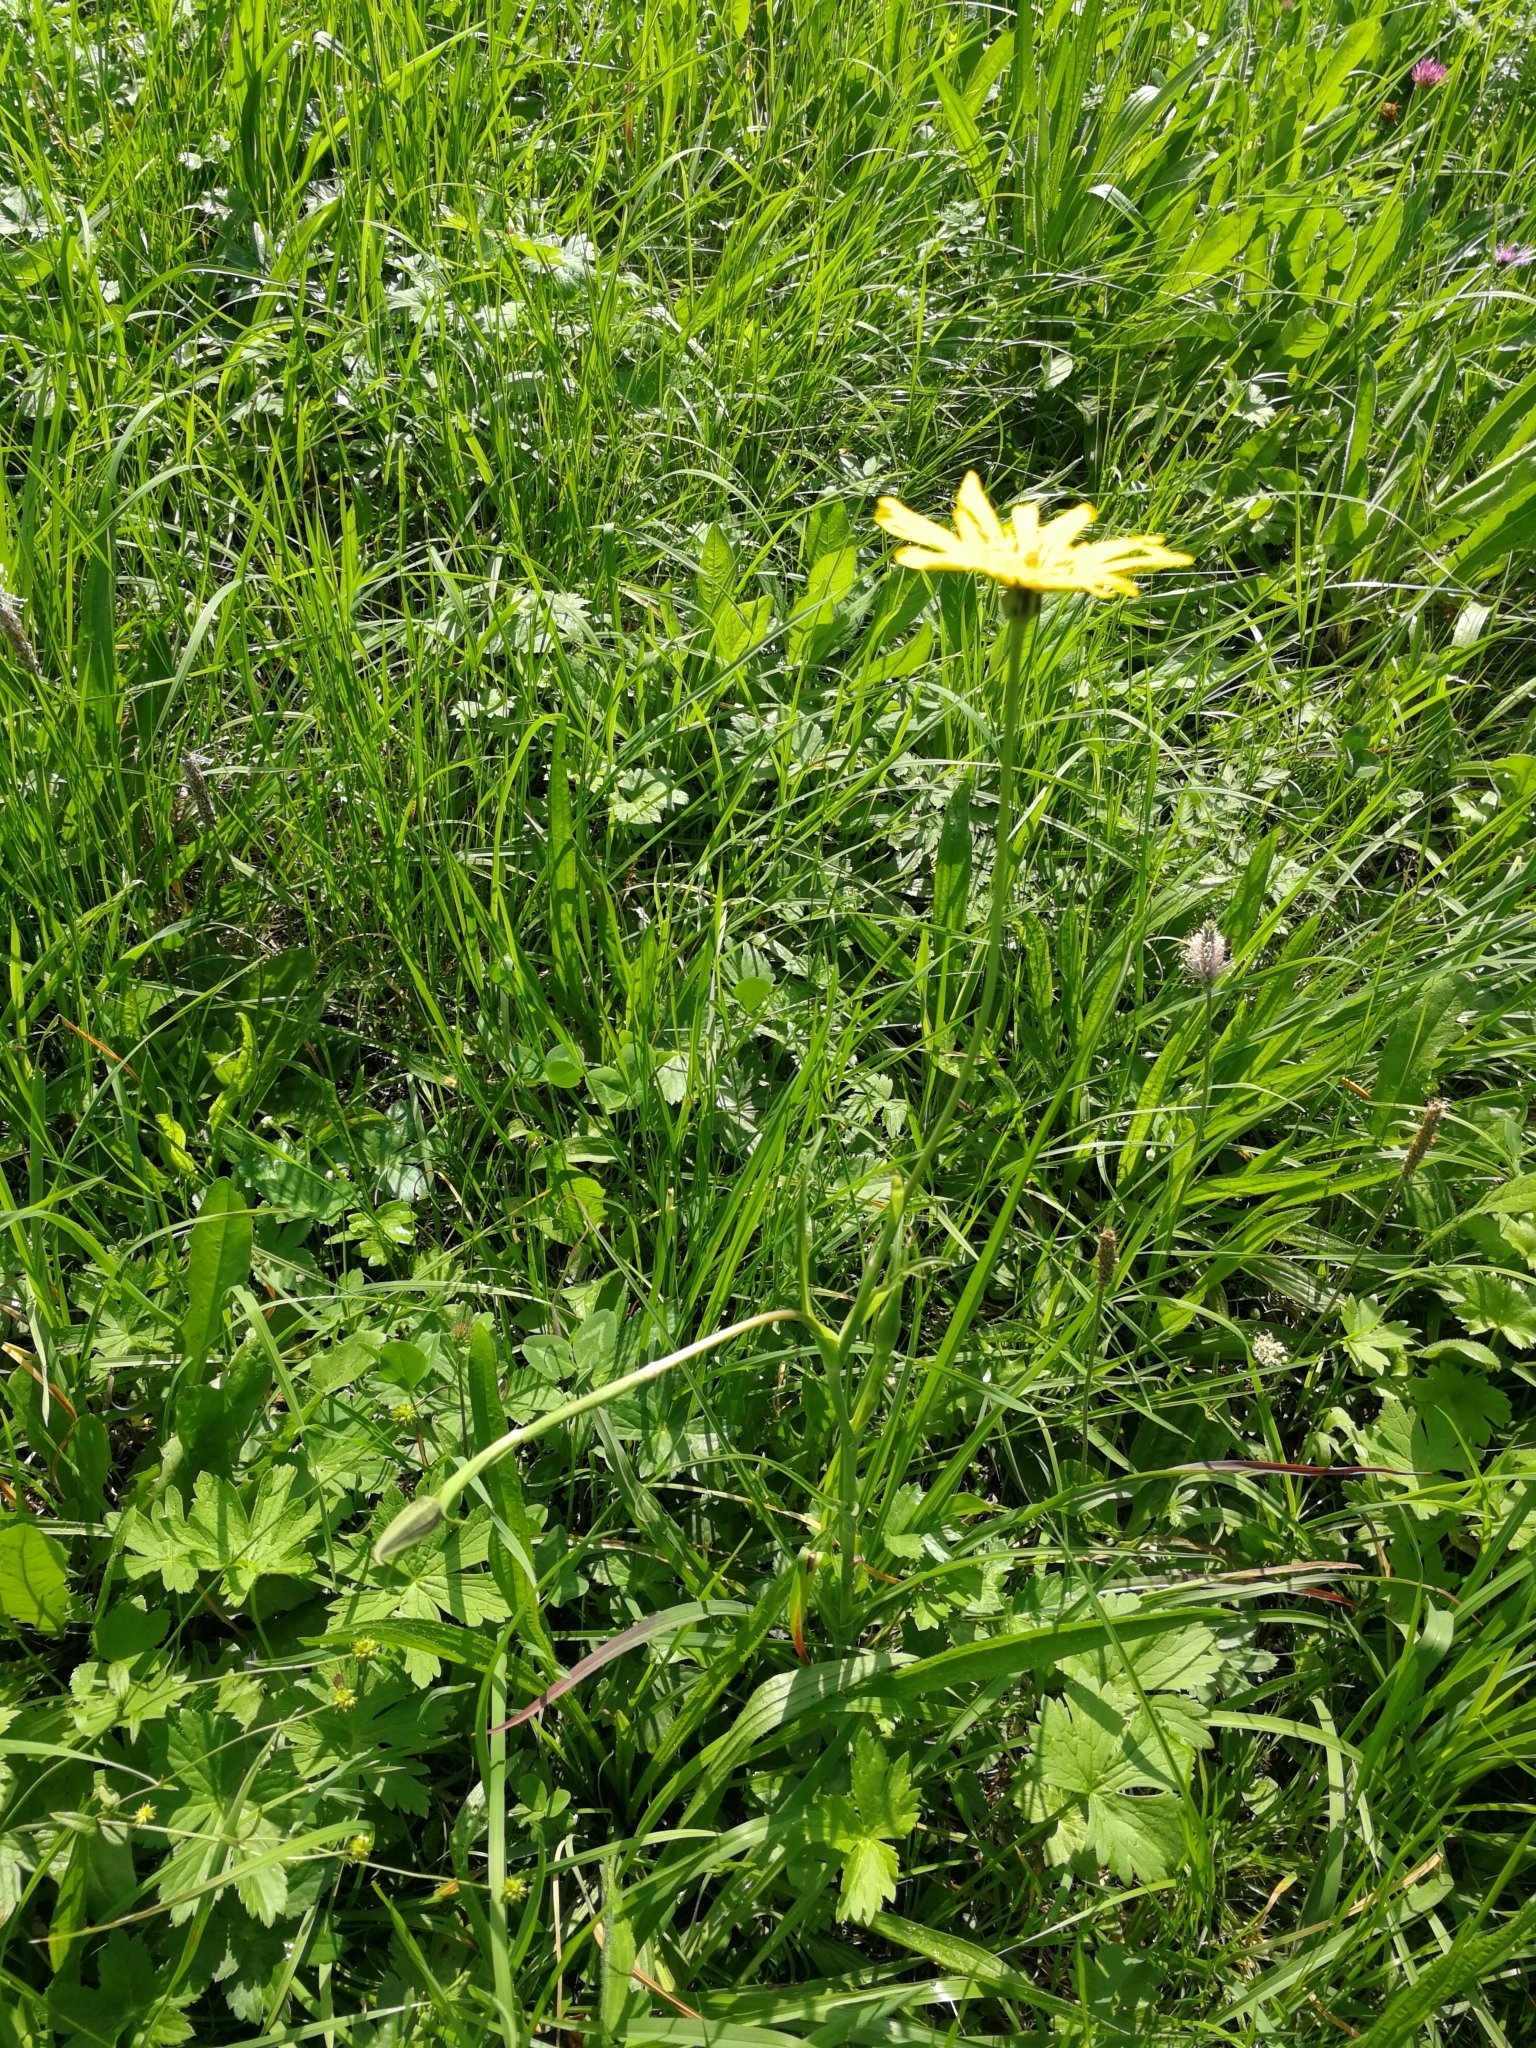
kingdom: Plantae
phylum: Tracheophyta
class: Magnoliopsida
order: Asterales
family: Asteraceae
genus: Tragopogon
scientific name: Tragopogon orientalis
